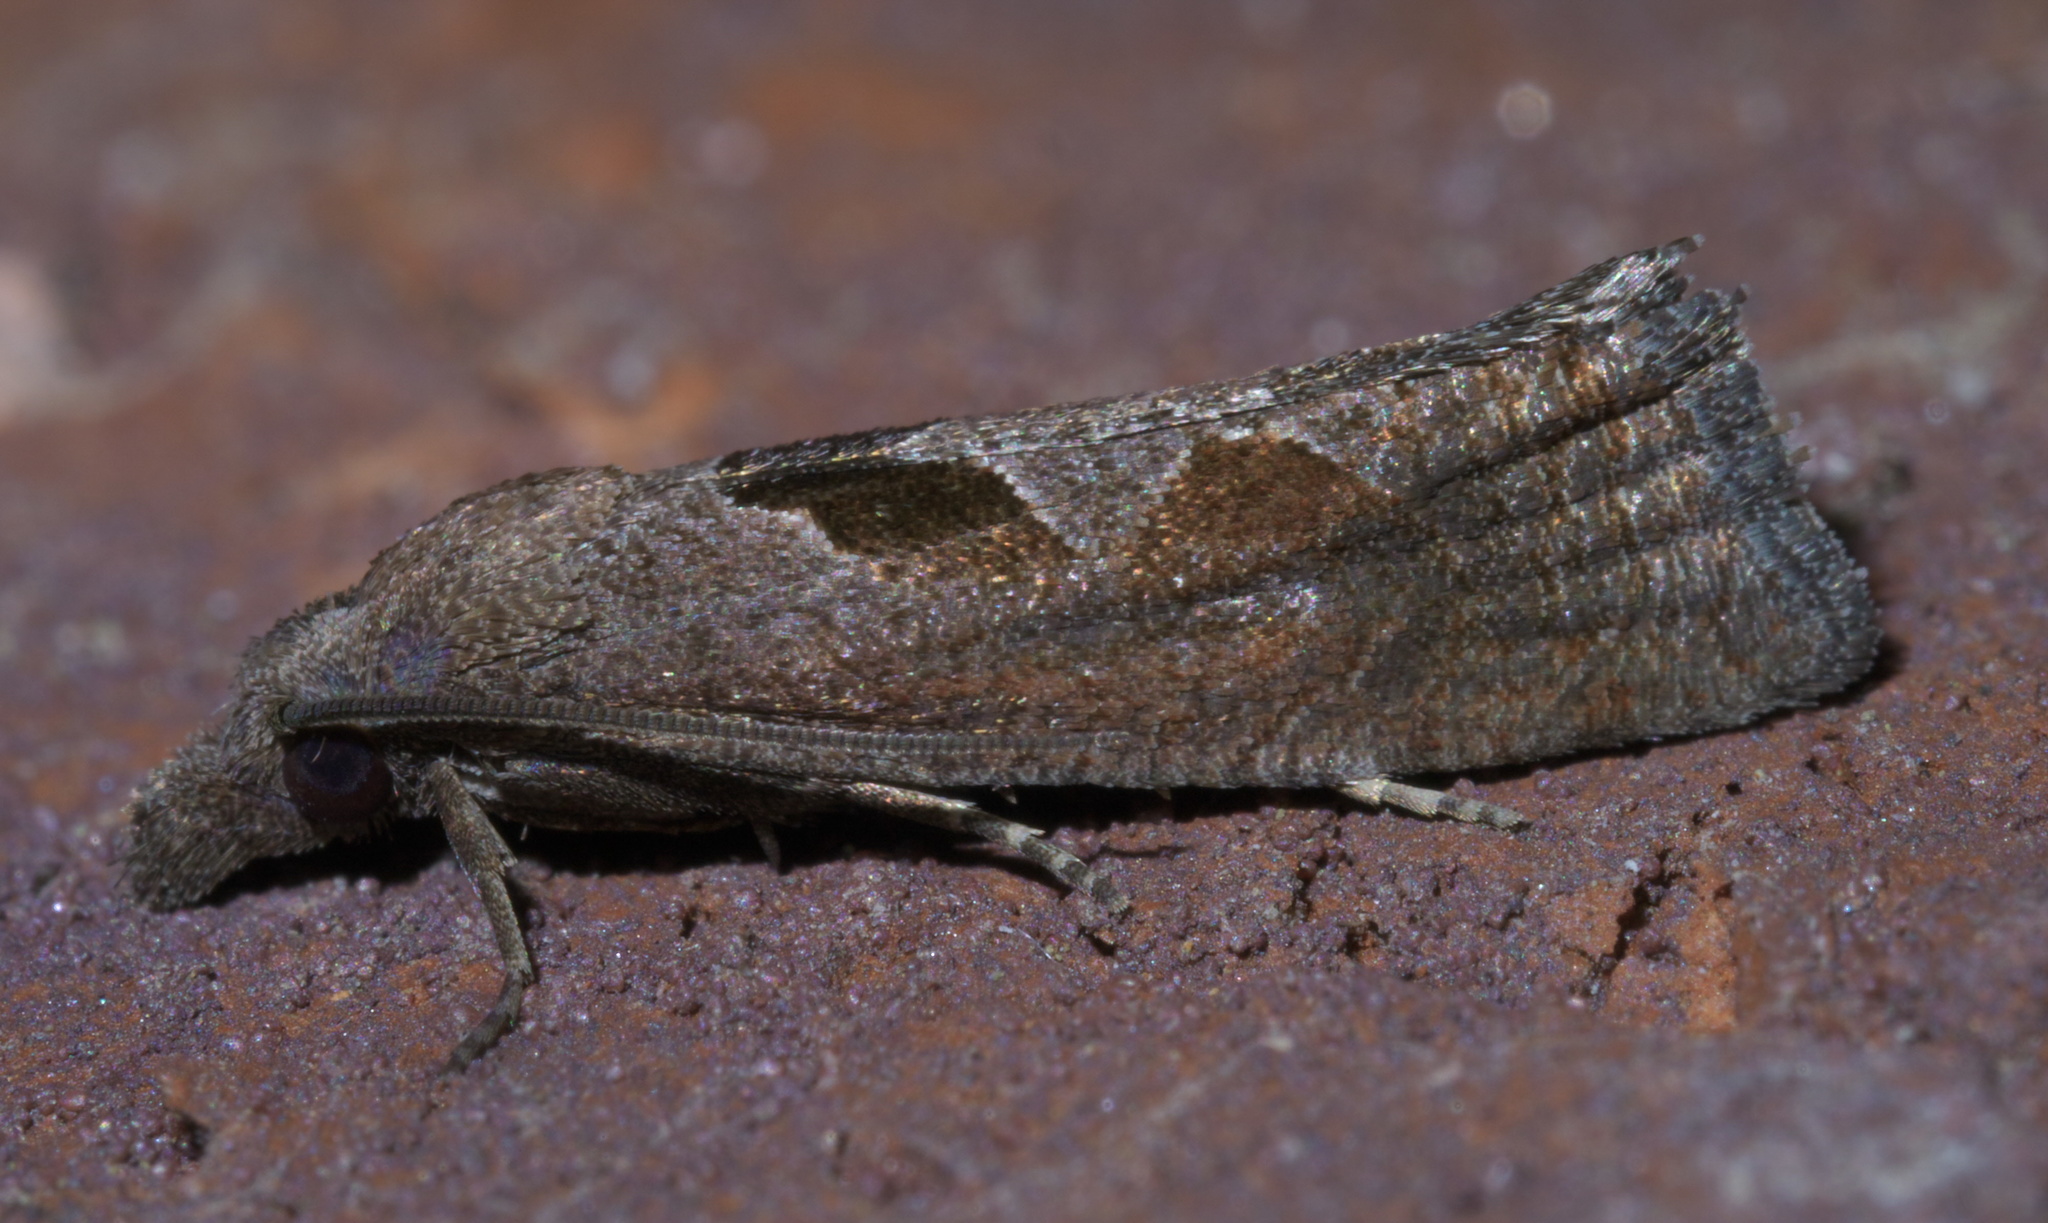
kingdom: Animalia
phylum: Arthropoda
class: Insecta
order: Lepidoptera
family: Tortricidae
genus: Pelochrista
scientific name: Pelochrista similiana
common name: Similar eucosma
